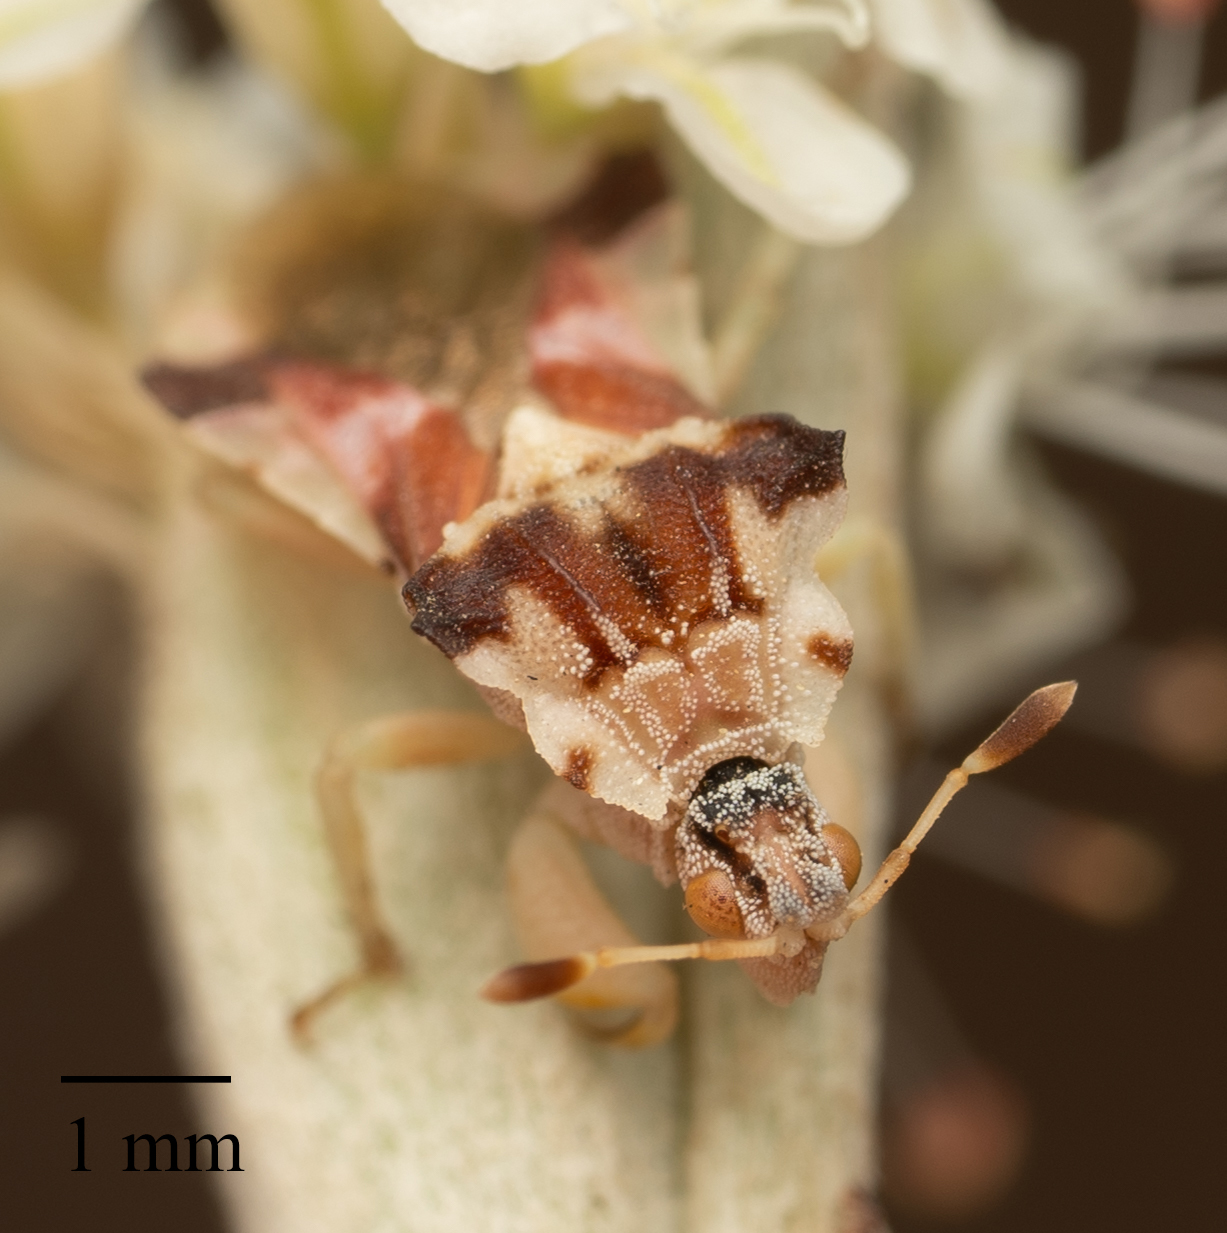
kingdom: Animalia
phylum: Arthropoda
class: Insecta
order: Hemiptera
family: Reduviidae
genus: Phymata
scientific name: Phymata pacifica
